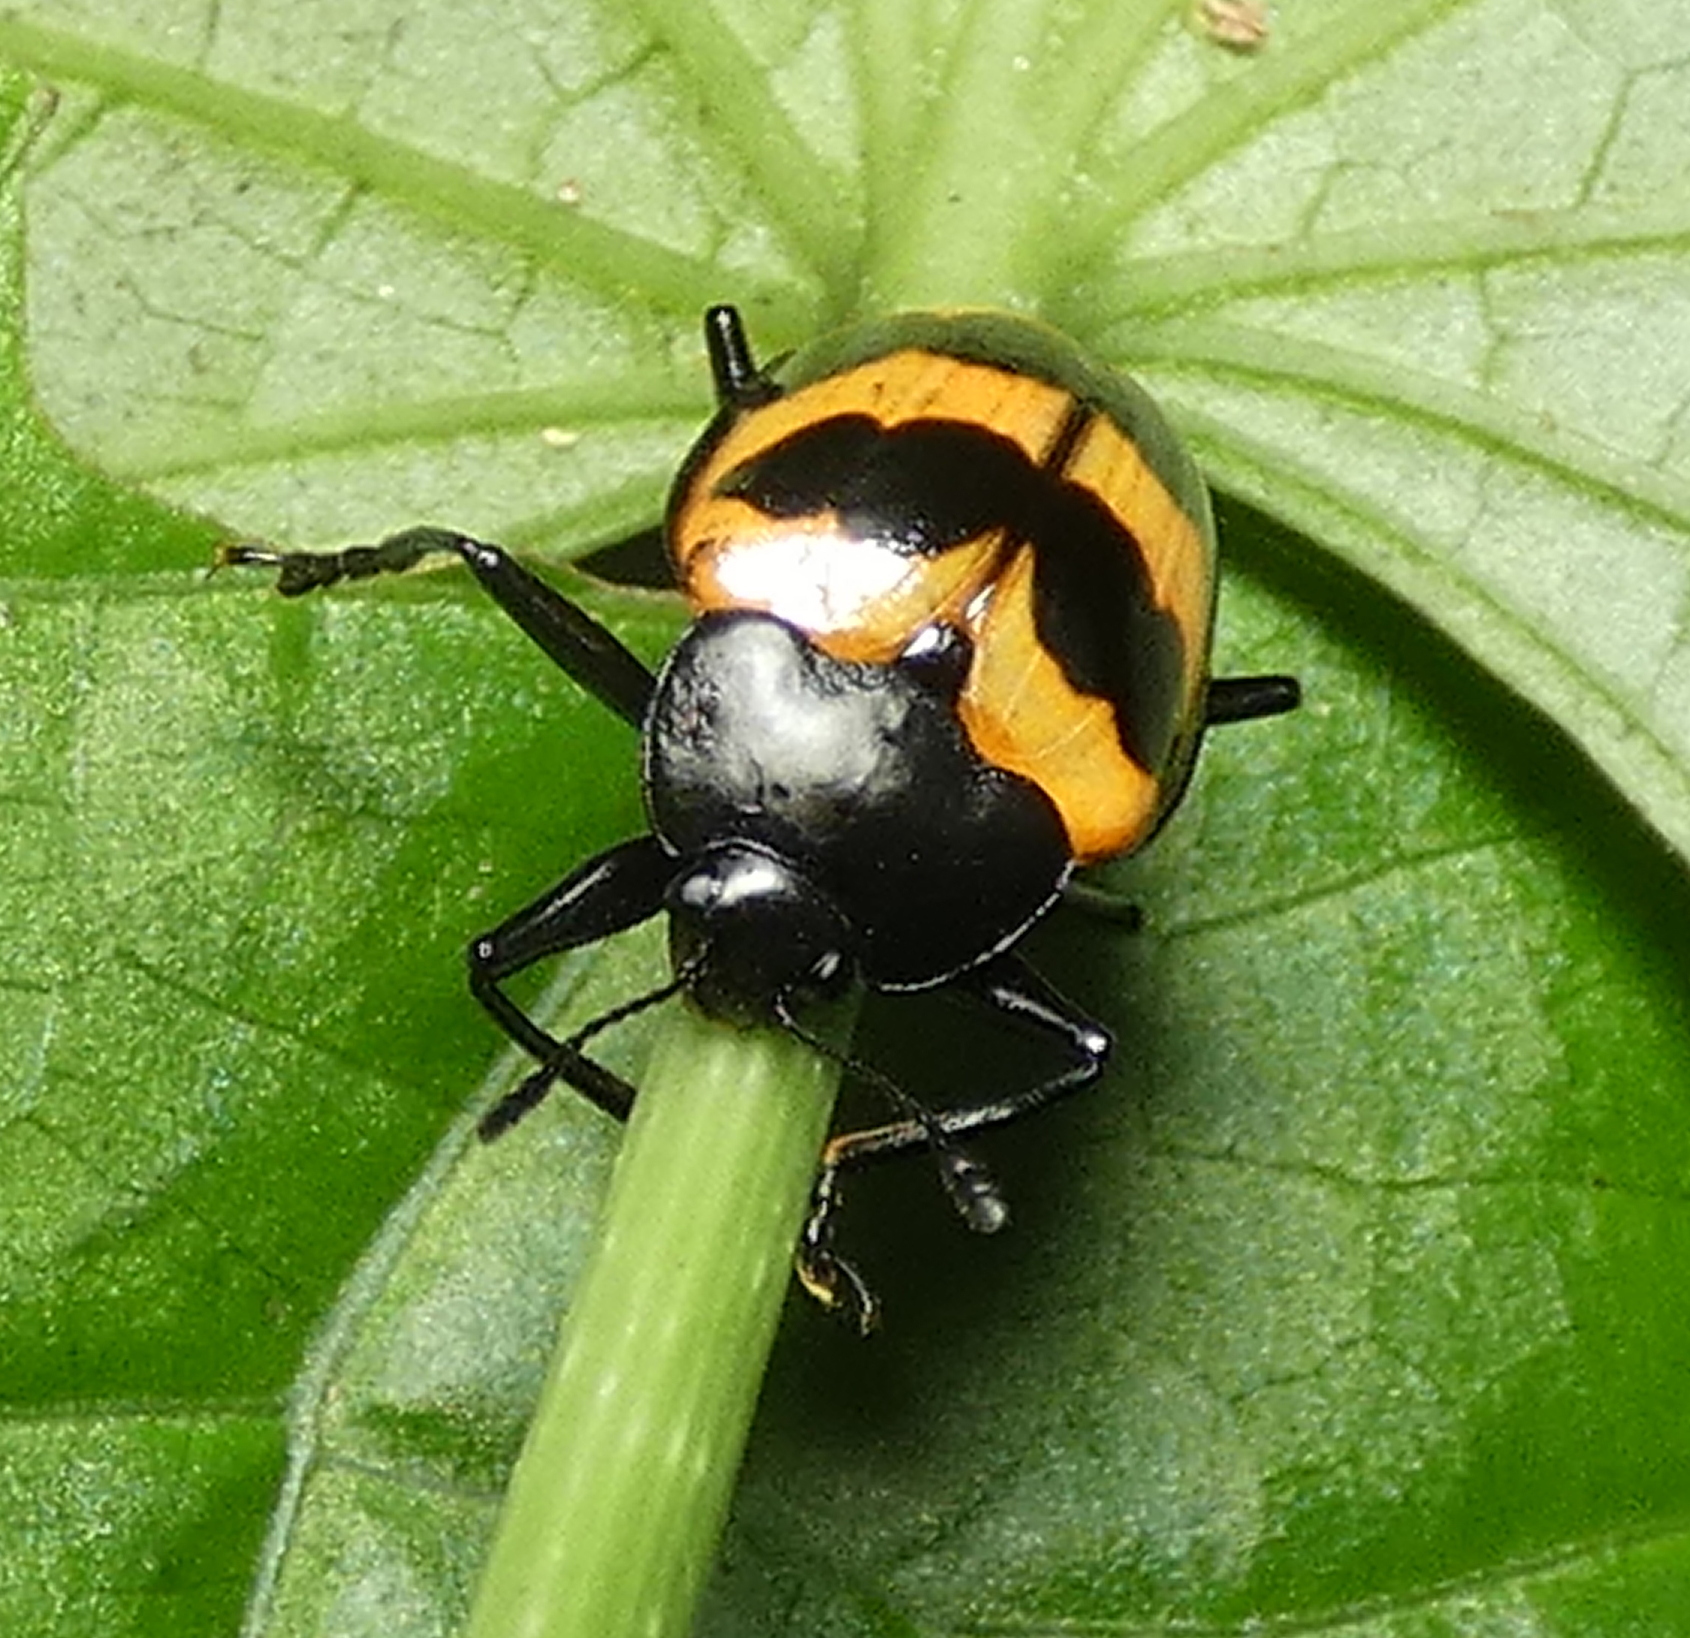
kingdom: Animalia
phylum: Arthropoda
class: Insecta
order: Coleoptera
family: Erotylidae
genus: Oligocorynus
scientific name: Oligocorynus
